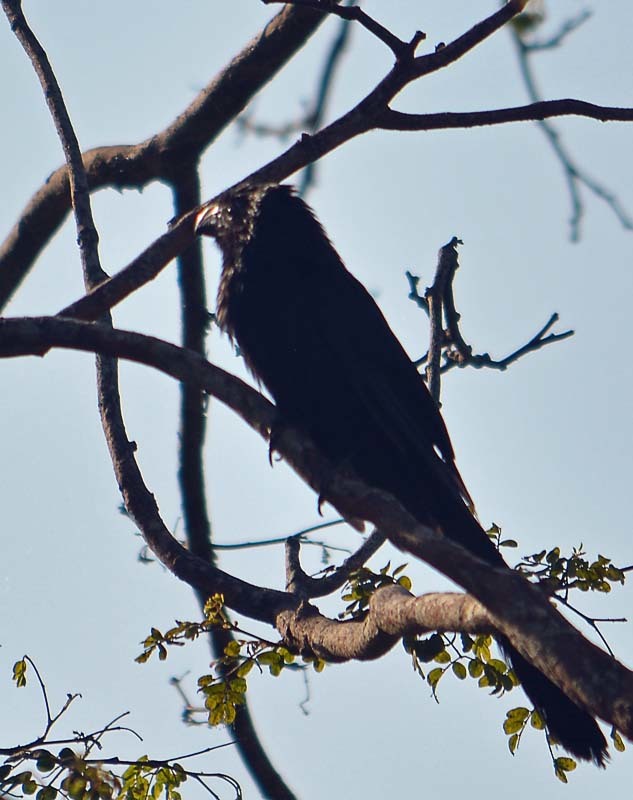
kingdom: Animalia
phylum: Chordata
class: Aves
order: Cuculiformes
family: Cuculidae
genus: Crotophaga
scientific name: Crotophaga sulcirostris
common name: Groove-billed ani
